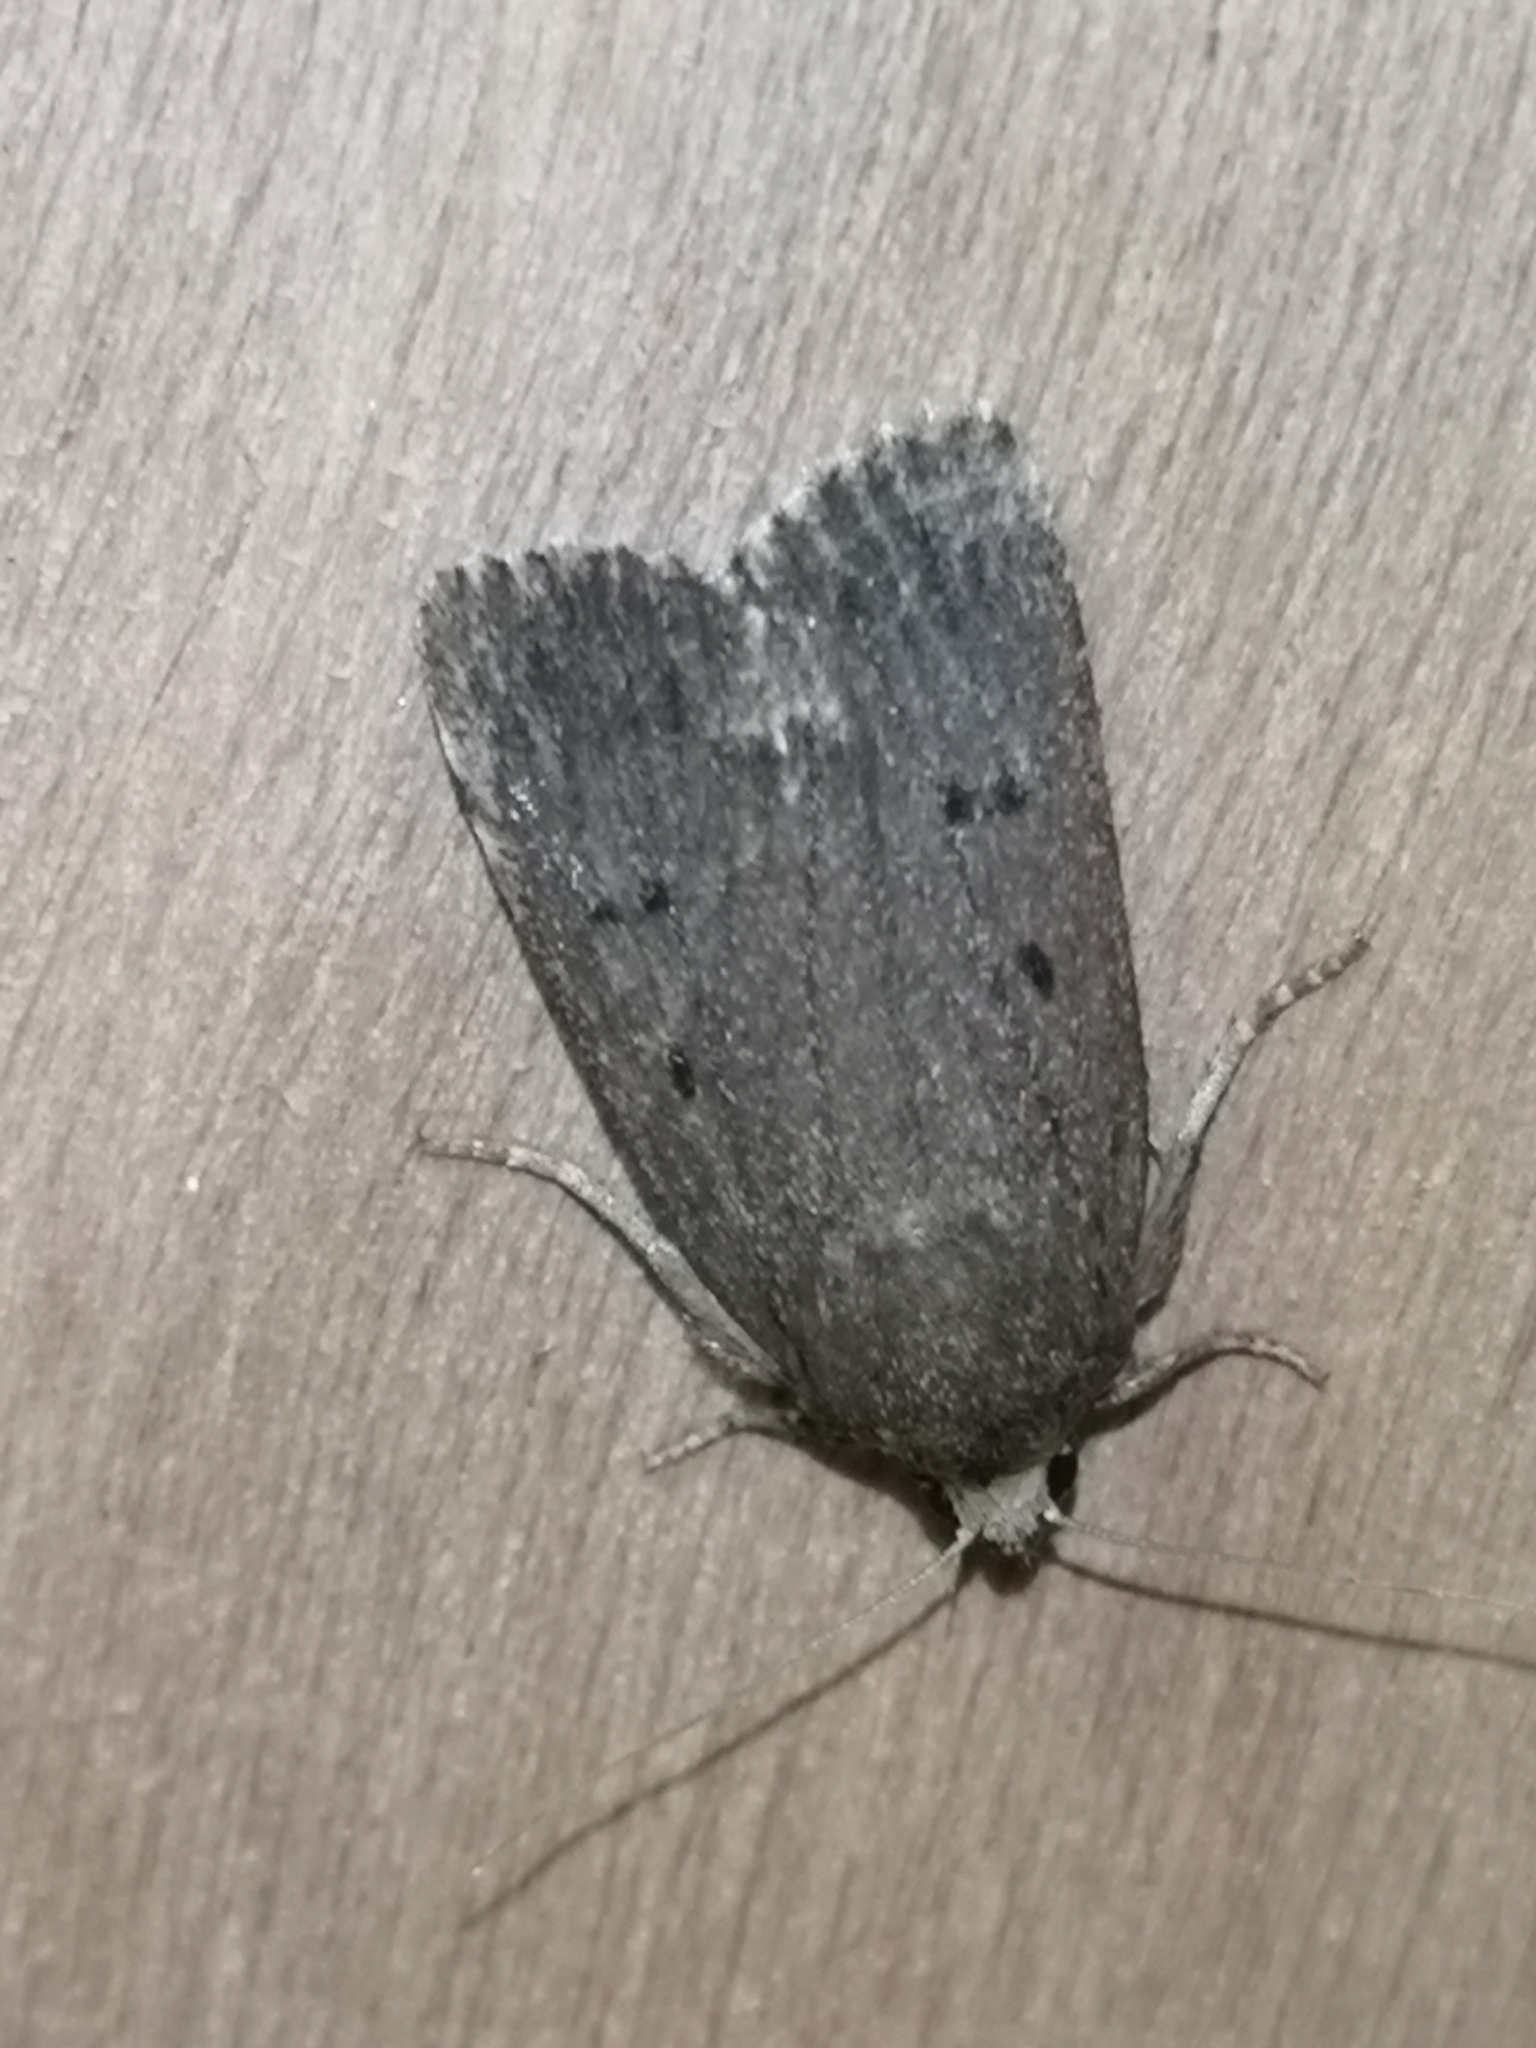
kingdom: Animalia
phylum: Arthropoda
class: Insecta
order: Lepidoptera
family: Noctuidae
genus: Amphipyra
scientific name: Amphipyra tragopoginis
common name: Mouse moth
